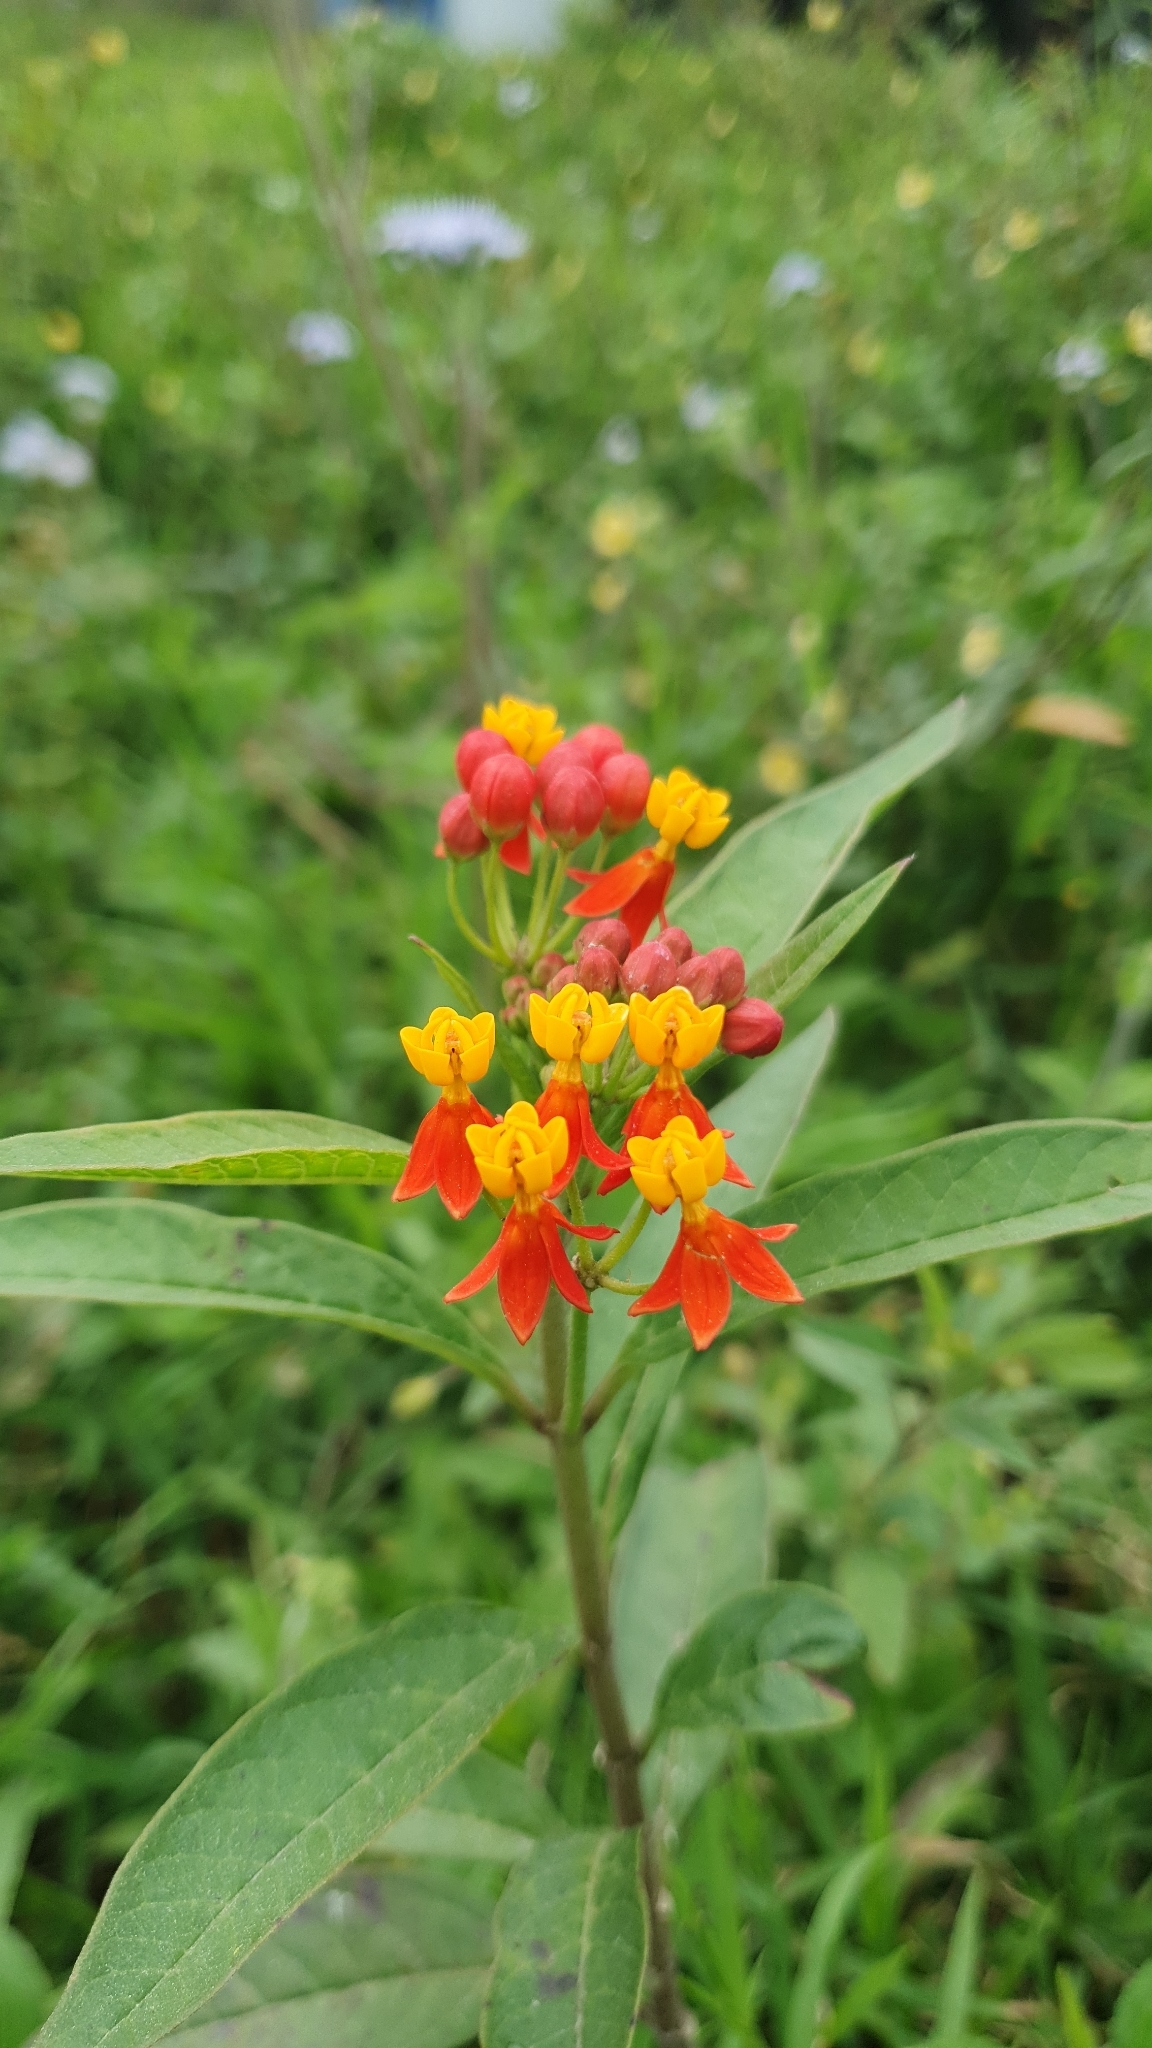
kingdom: Plantae
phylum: Tracheophyta
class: Magnoliopsida
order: Gentianales
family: Apocynaceae
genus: Asclepias
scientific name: Asclepias curassavica
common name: Bloodflower
